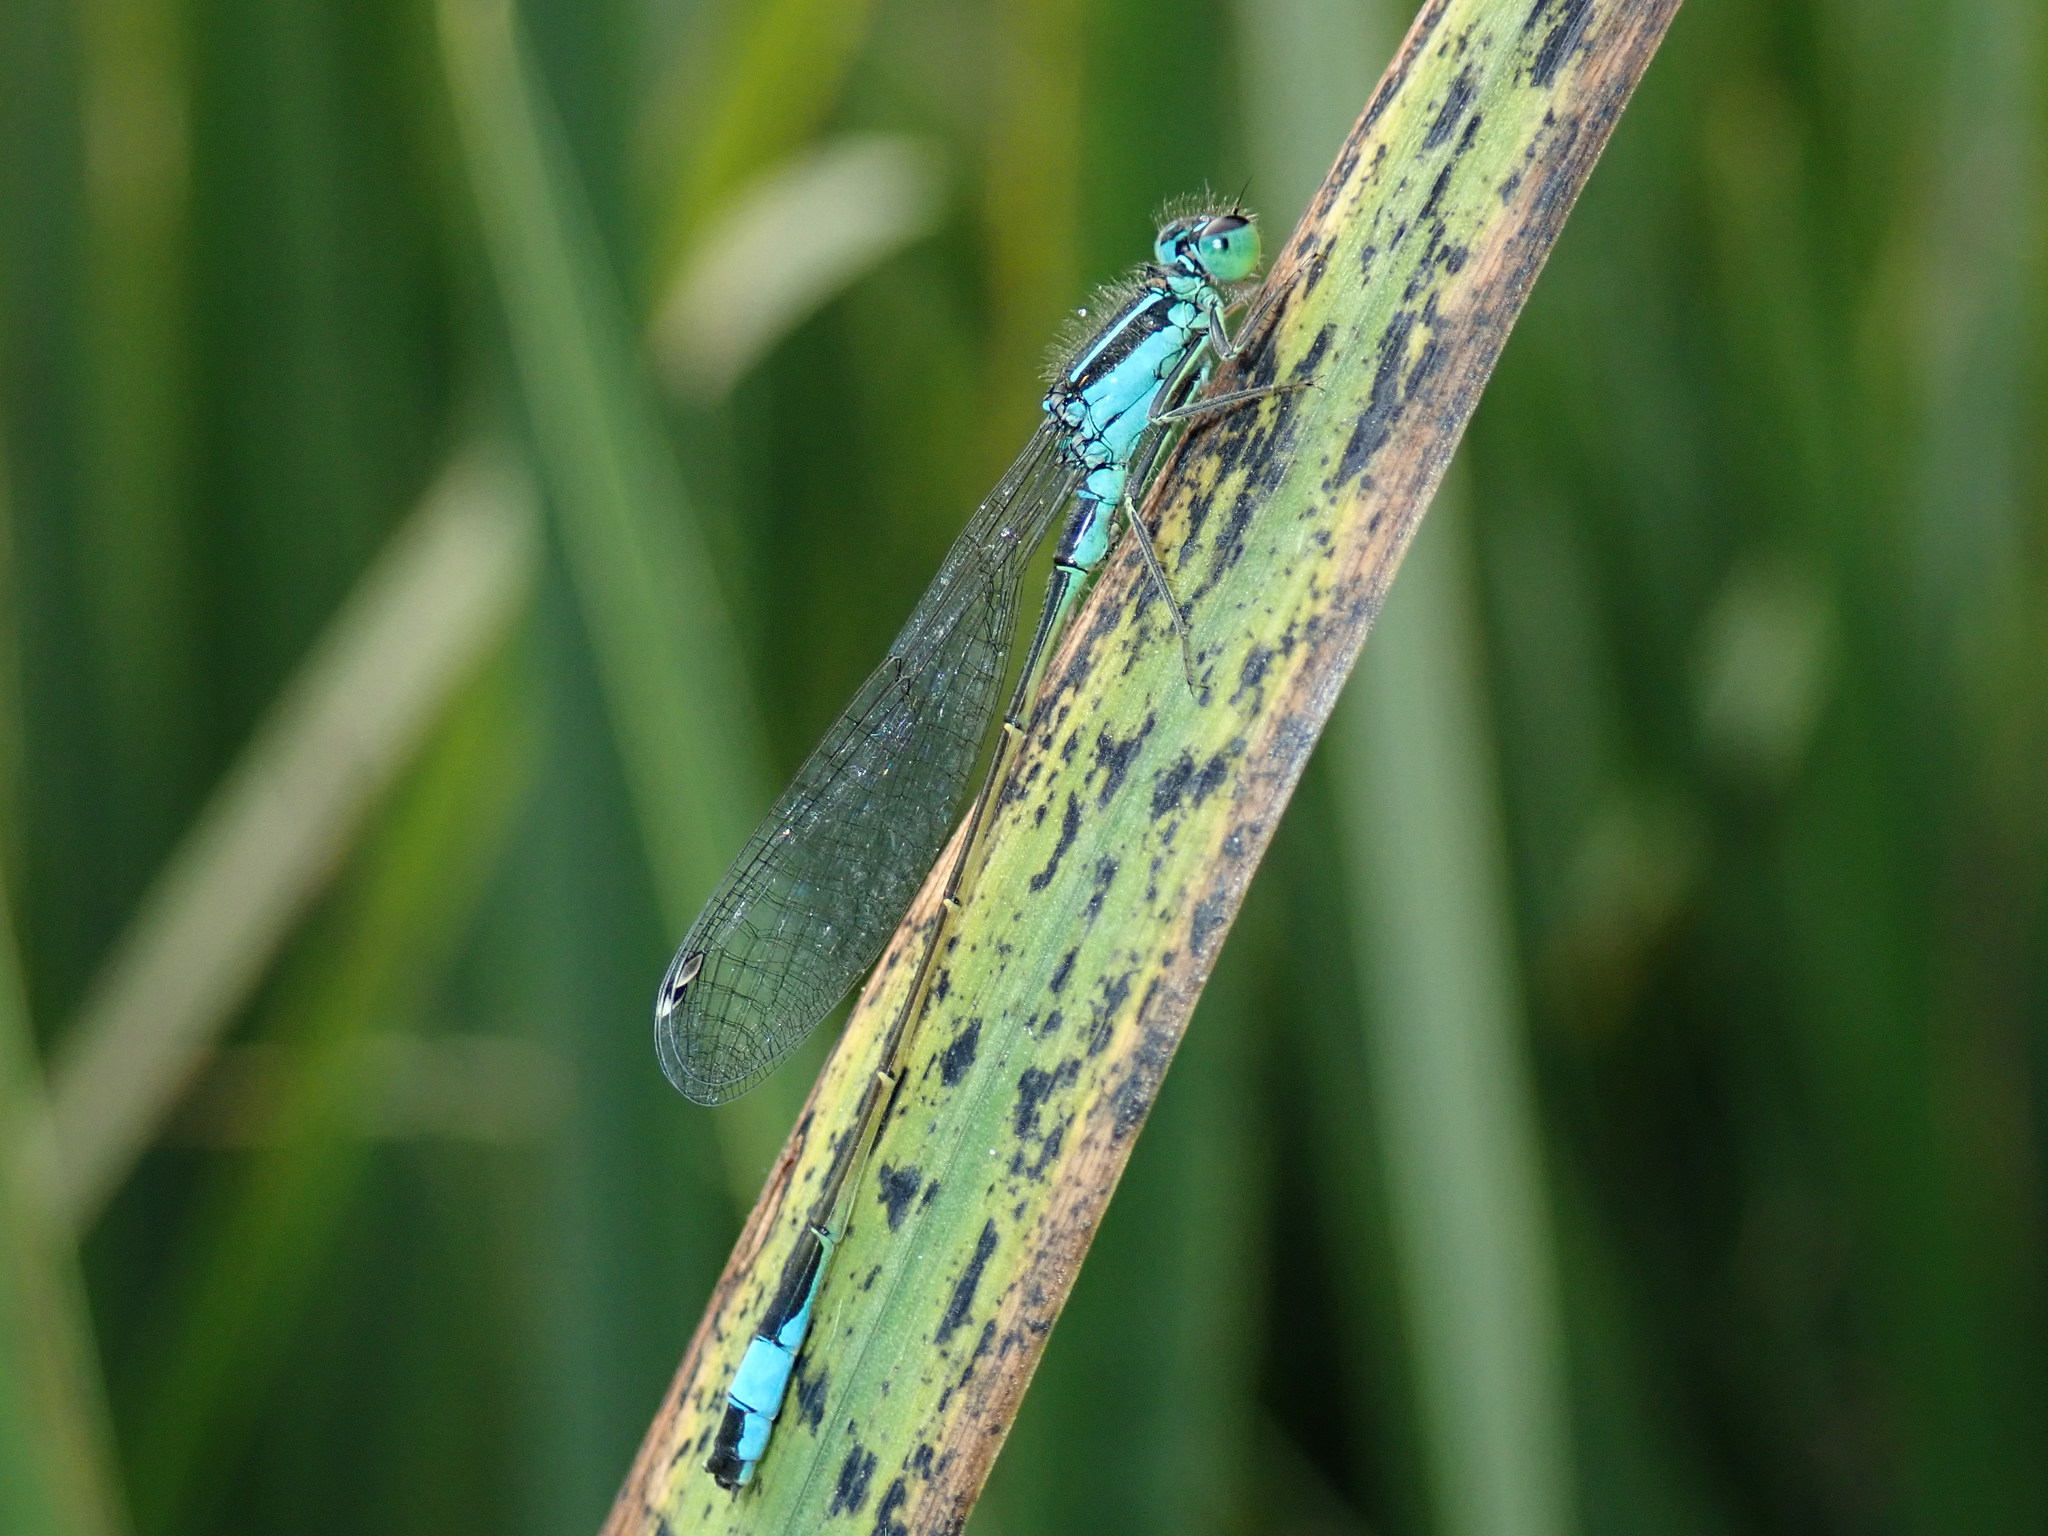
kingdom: Animalia
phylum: Arthropoda
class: Insecta
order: Odonata
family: Coenagrionidae
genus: Ischnura
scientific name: Ischnura elegans
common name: Blue-tailed damselfly
